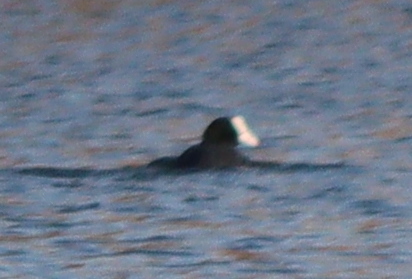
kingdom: Animalia
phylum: Chordata
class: Aves
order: Gruiformes
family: Rallidae
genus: Fulica
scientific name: Fulica atra
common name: Eurasian coot
